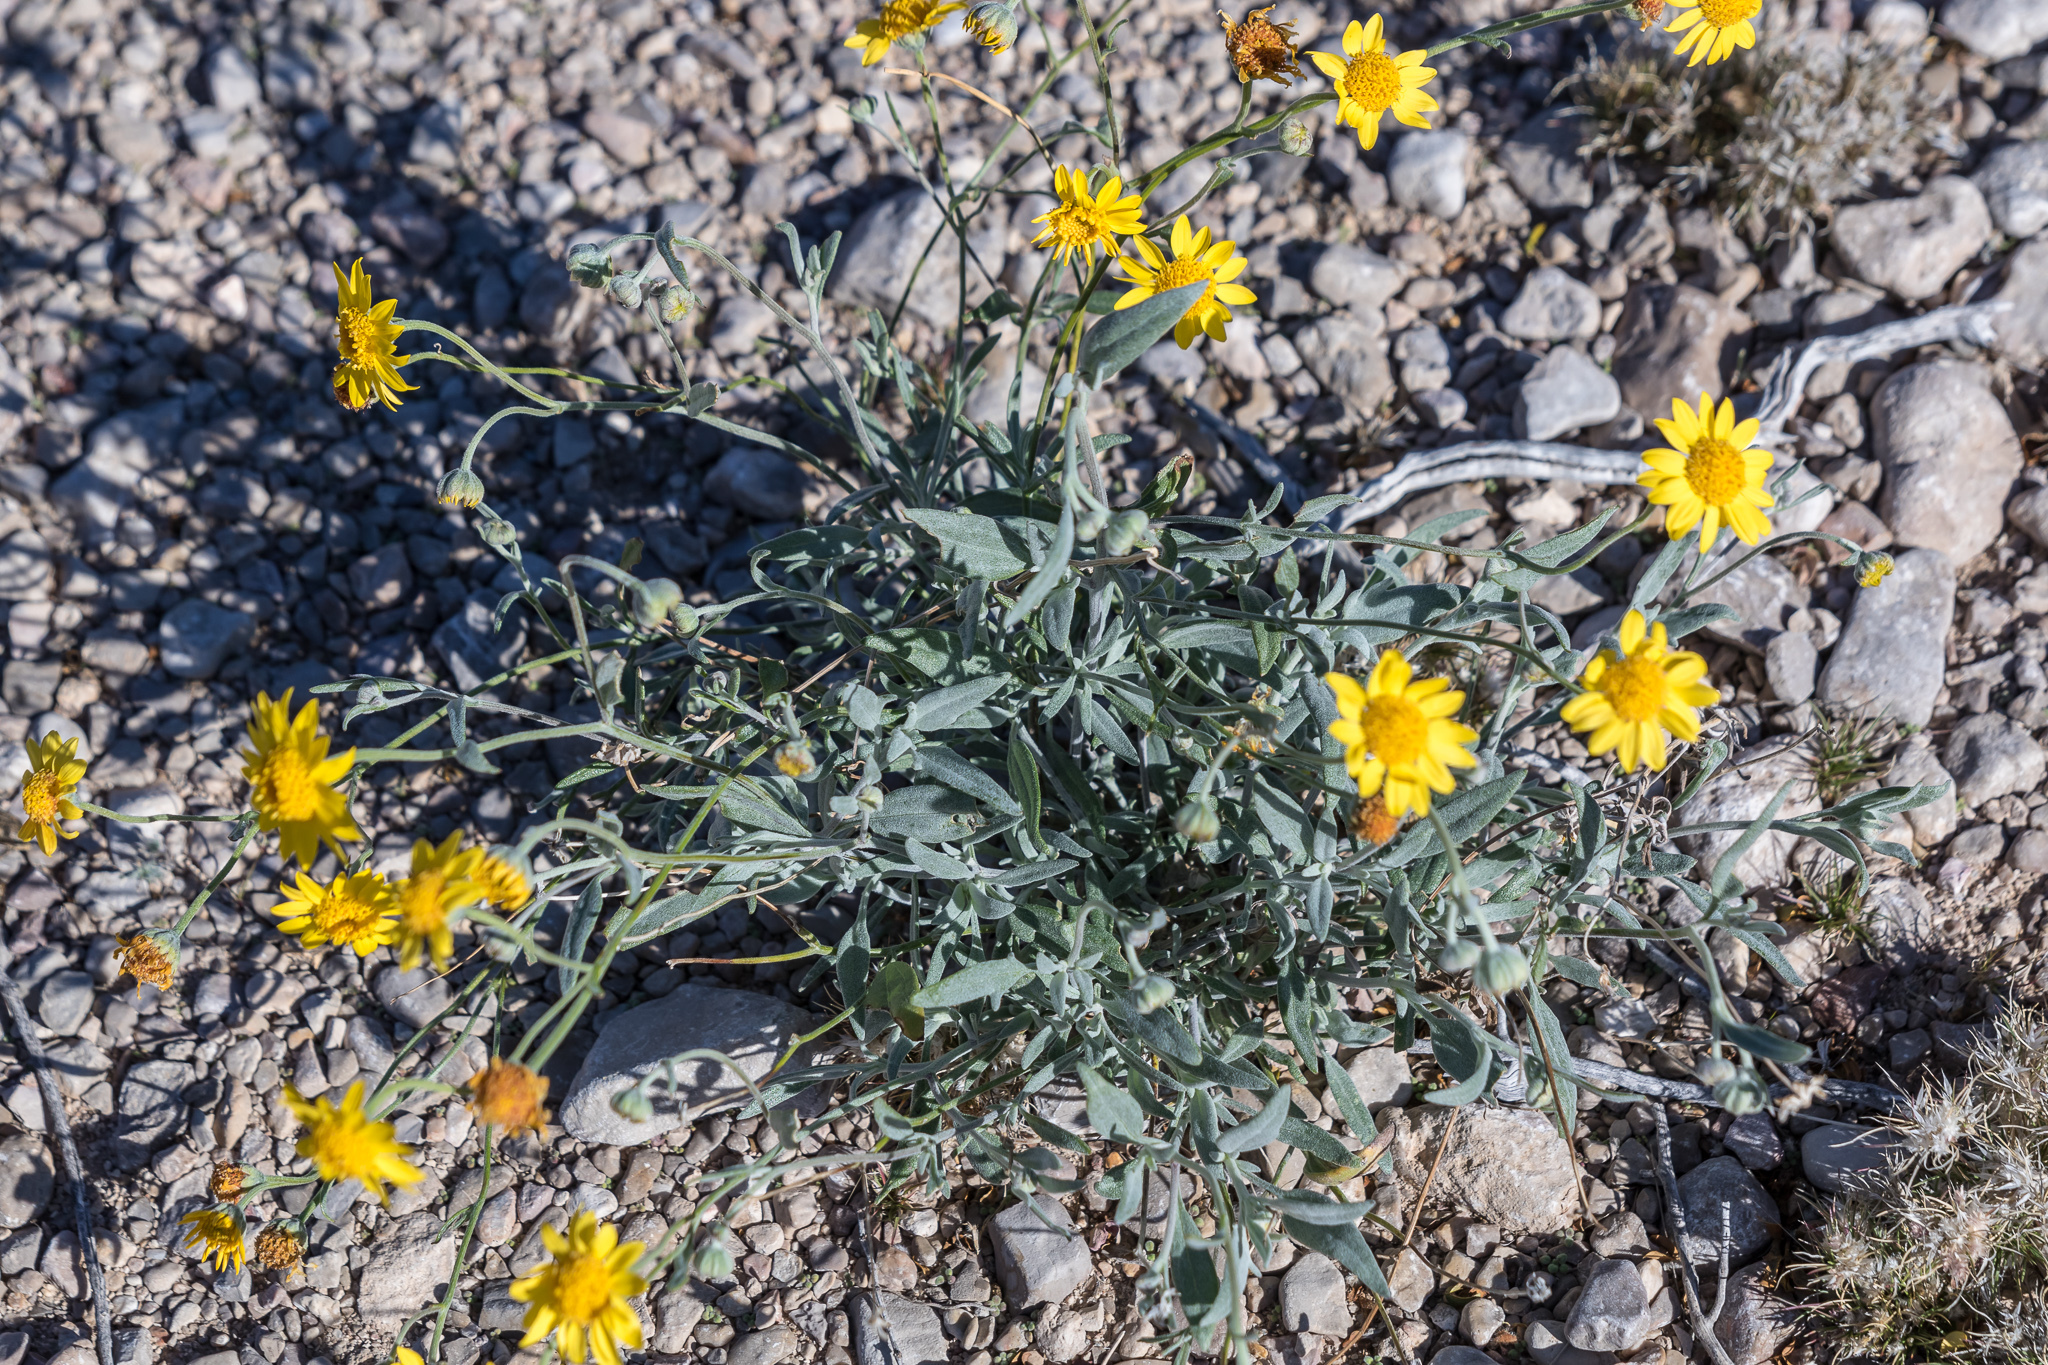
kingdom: Plantae
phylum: Tracheophyta
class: Magnoliopsida
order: Asterales
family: Asteraceae
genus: Picradeniopsis
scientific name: Picradeniopsis absinthifolia
